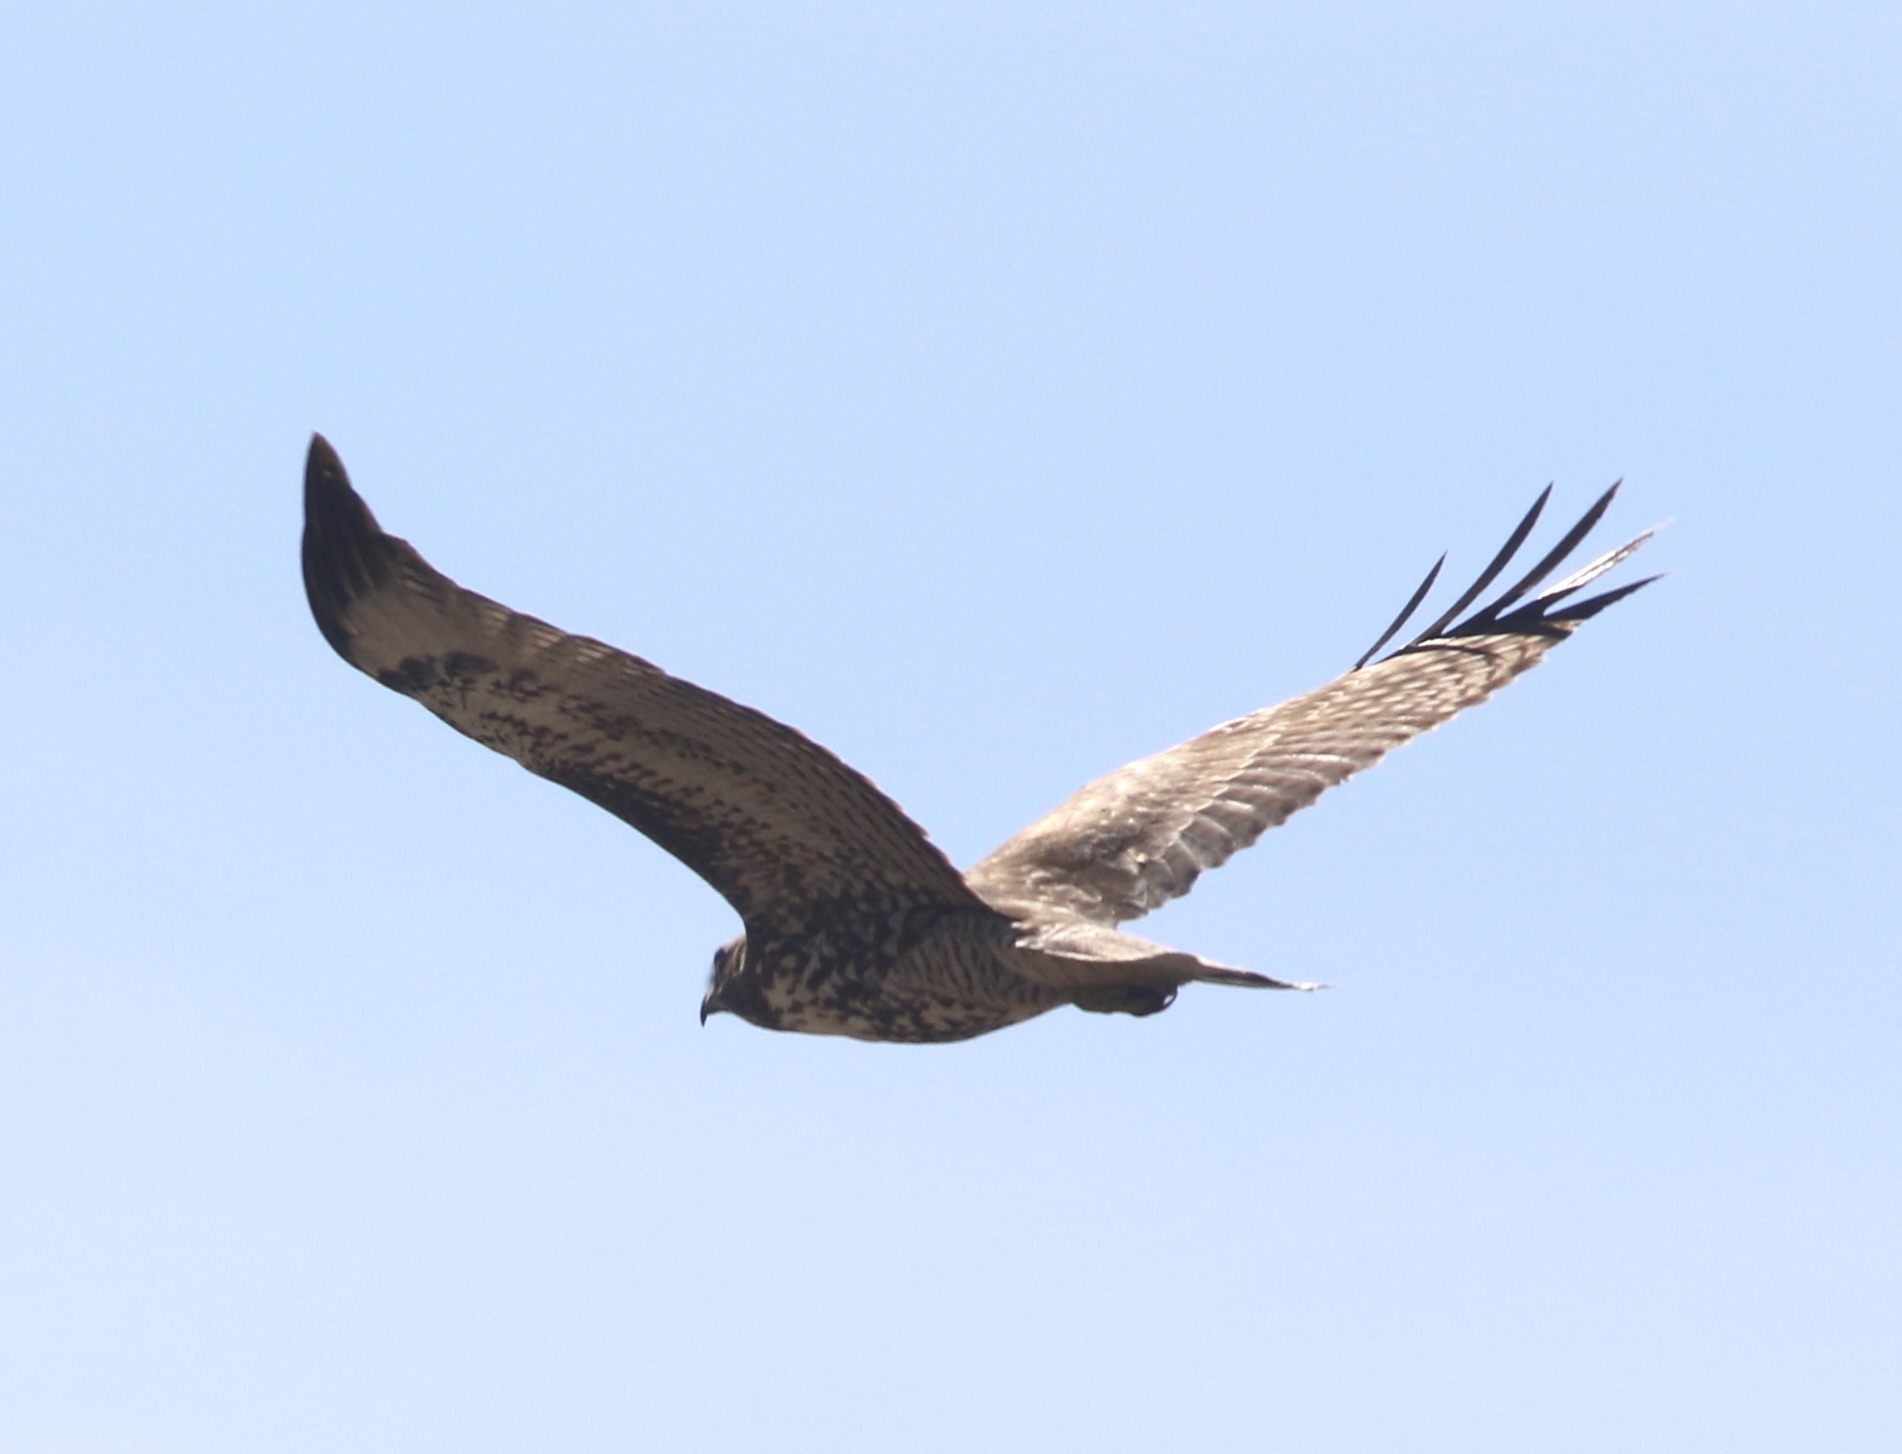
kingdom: Animalia
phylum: Chordata
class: Aves
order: Accipitriformes
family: Accipitridae
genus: Buteo
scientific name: Buteo jamaicensis
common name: Red-tailed hawk
